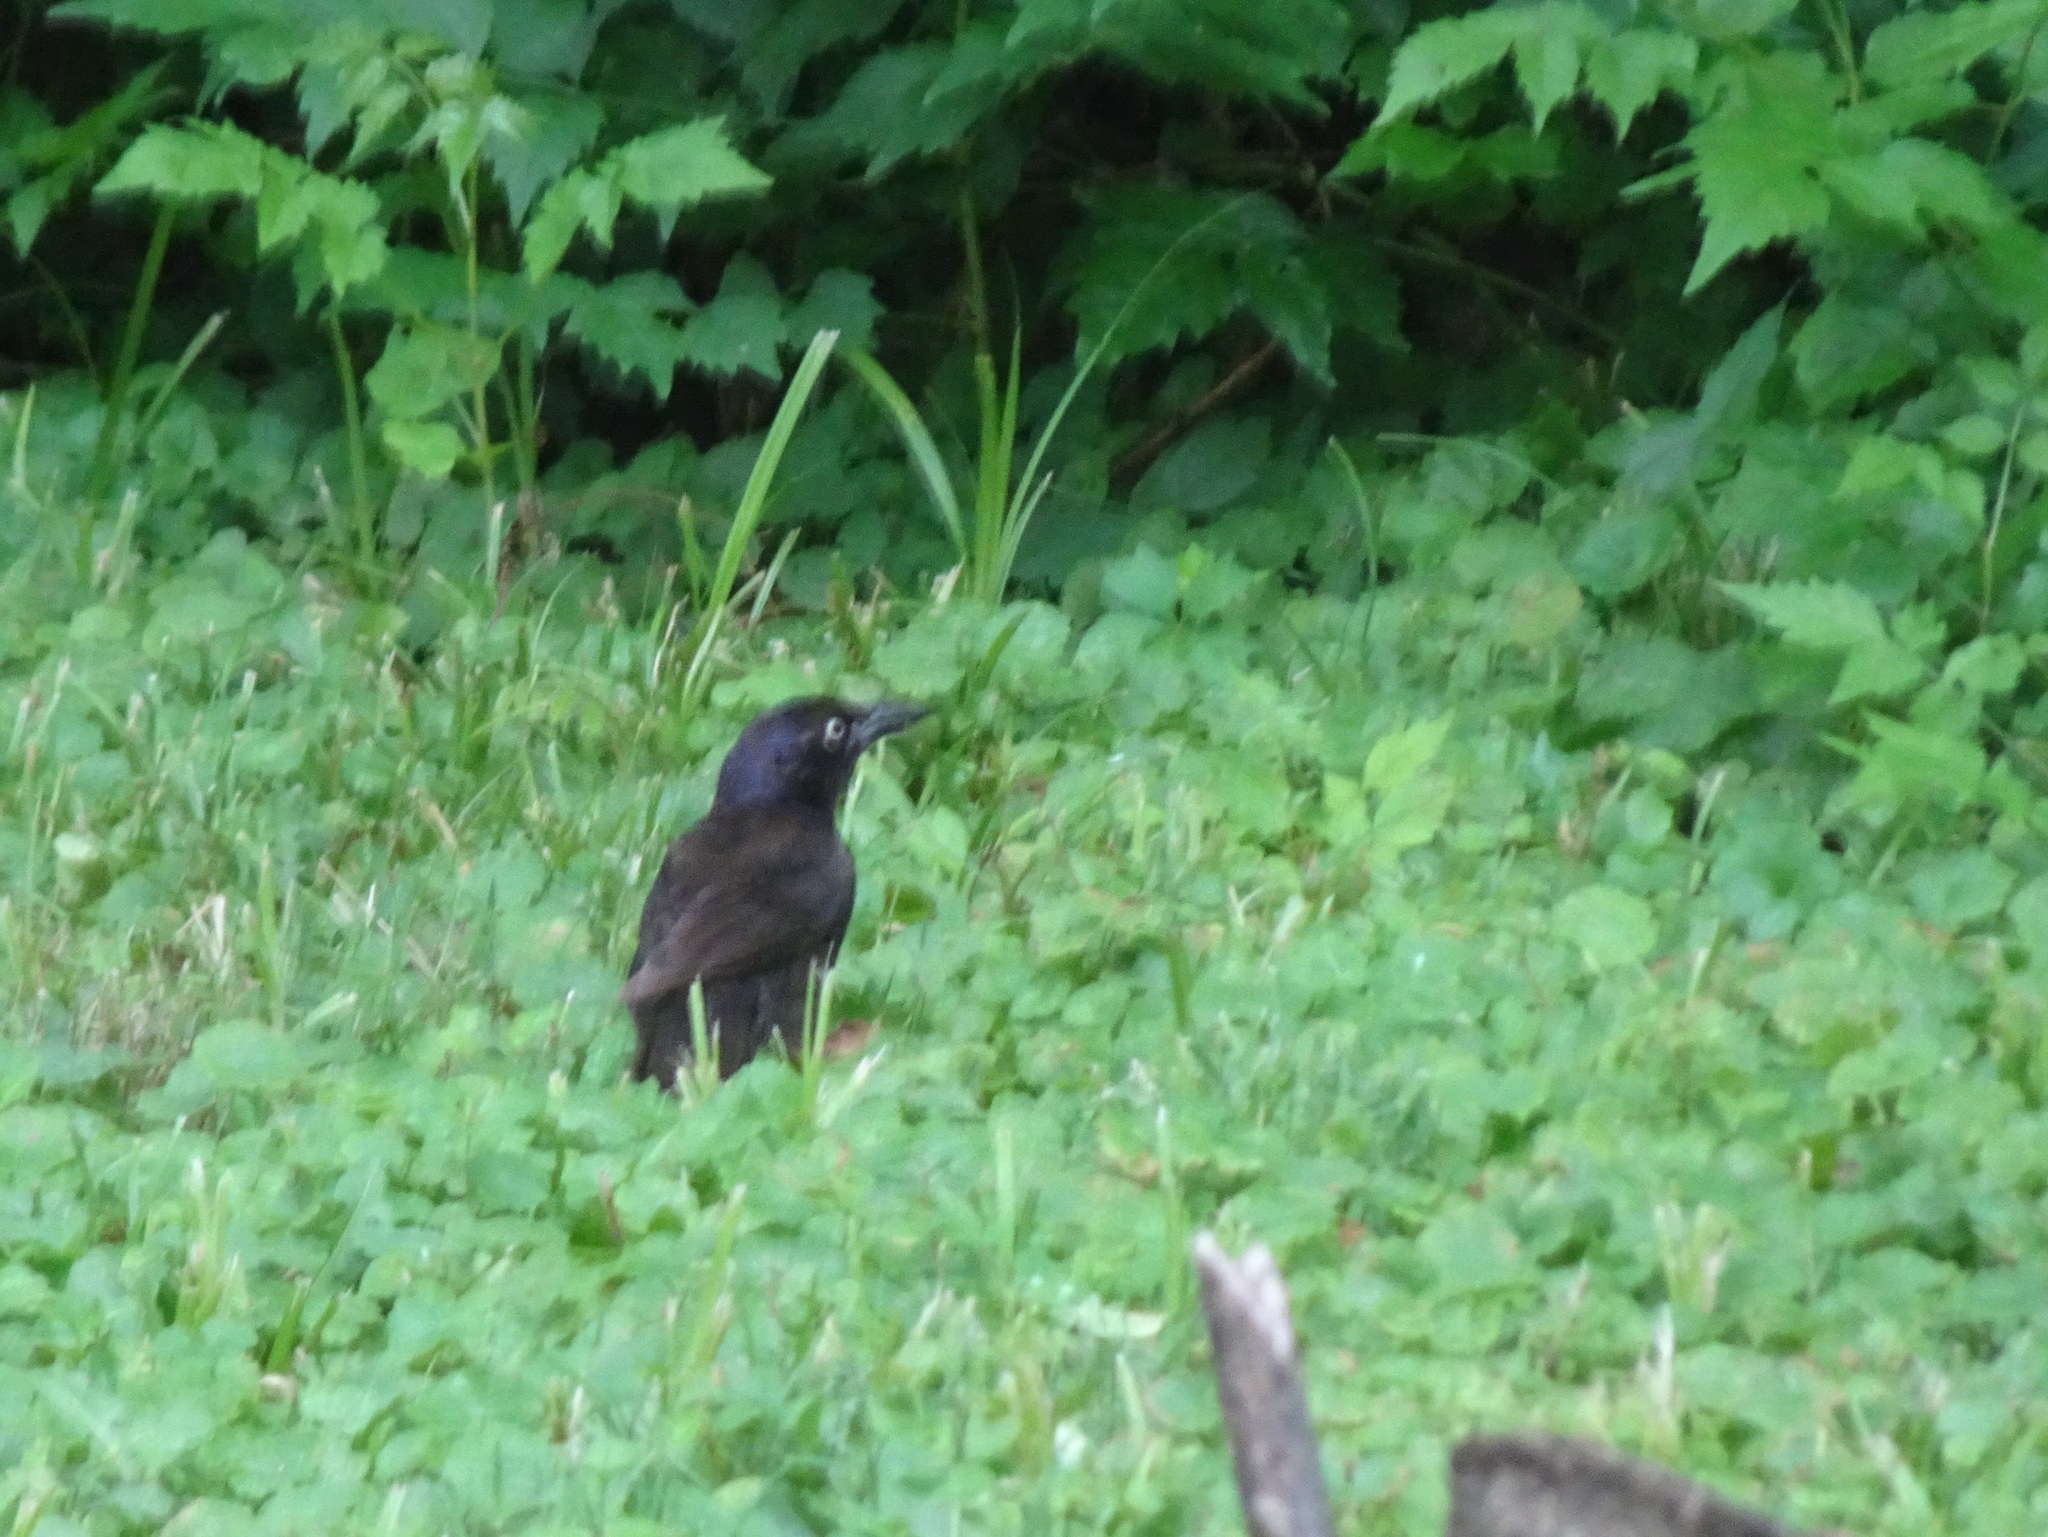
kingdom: Animalia
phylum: Chordata
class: Aves
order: Passeriformes
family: Icteridae
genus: Quiscalus
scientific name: Quiscalus quiscula
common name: Common grackle
